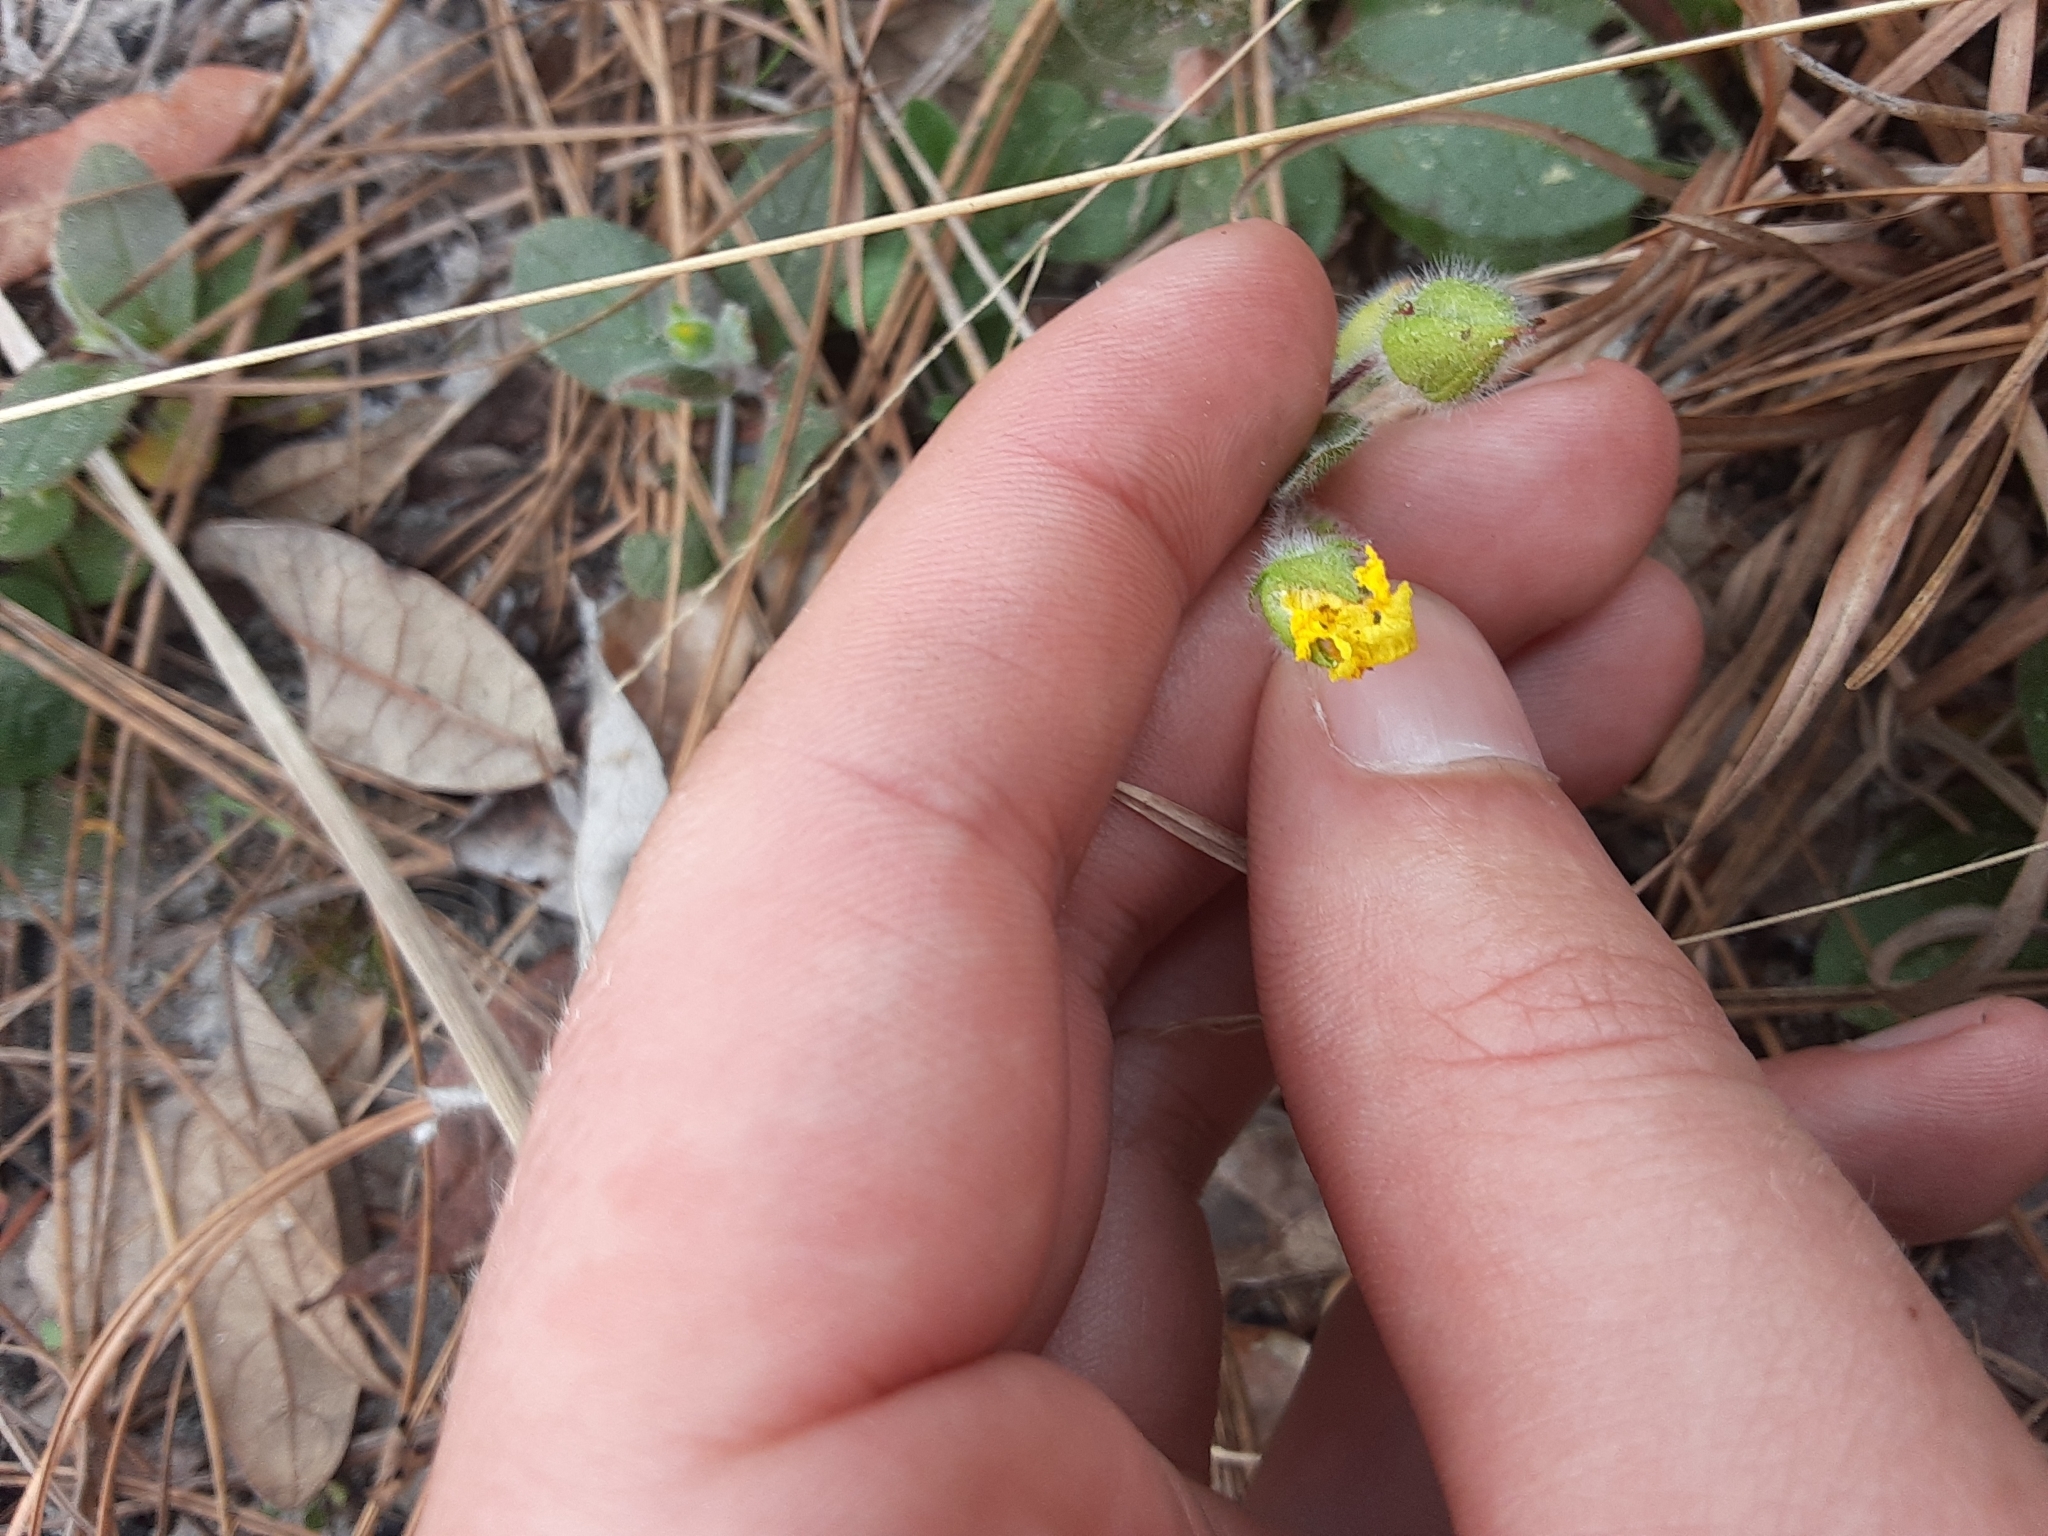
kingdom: Plantae
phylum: Tracheophyta
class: Magnoliopsida
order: Malvales
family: Cistaceae
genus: Crocanthemum
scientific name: Crocanthemum carolinianum
